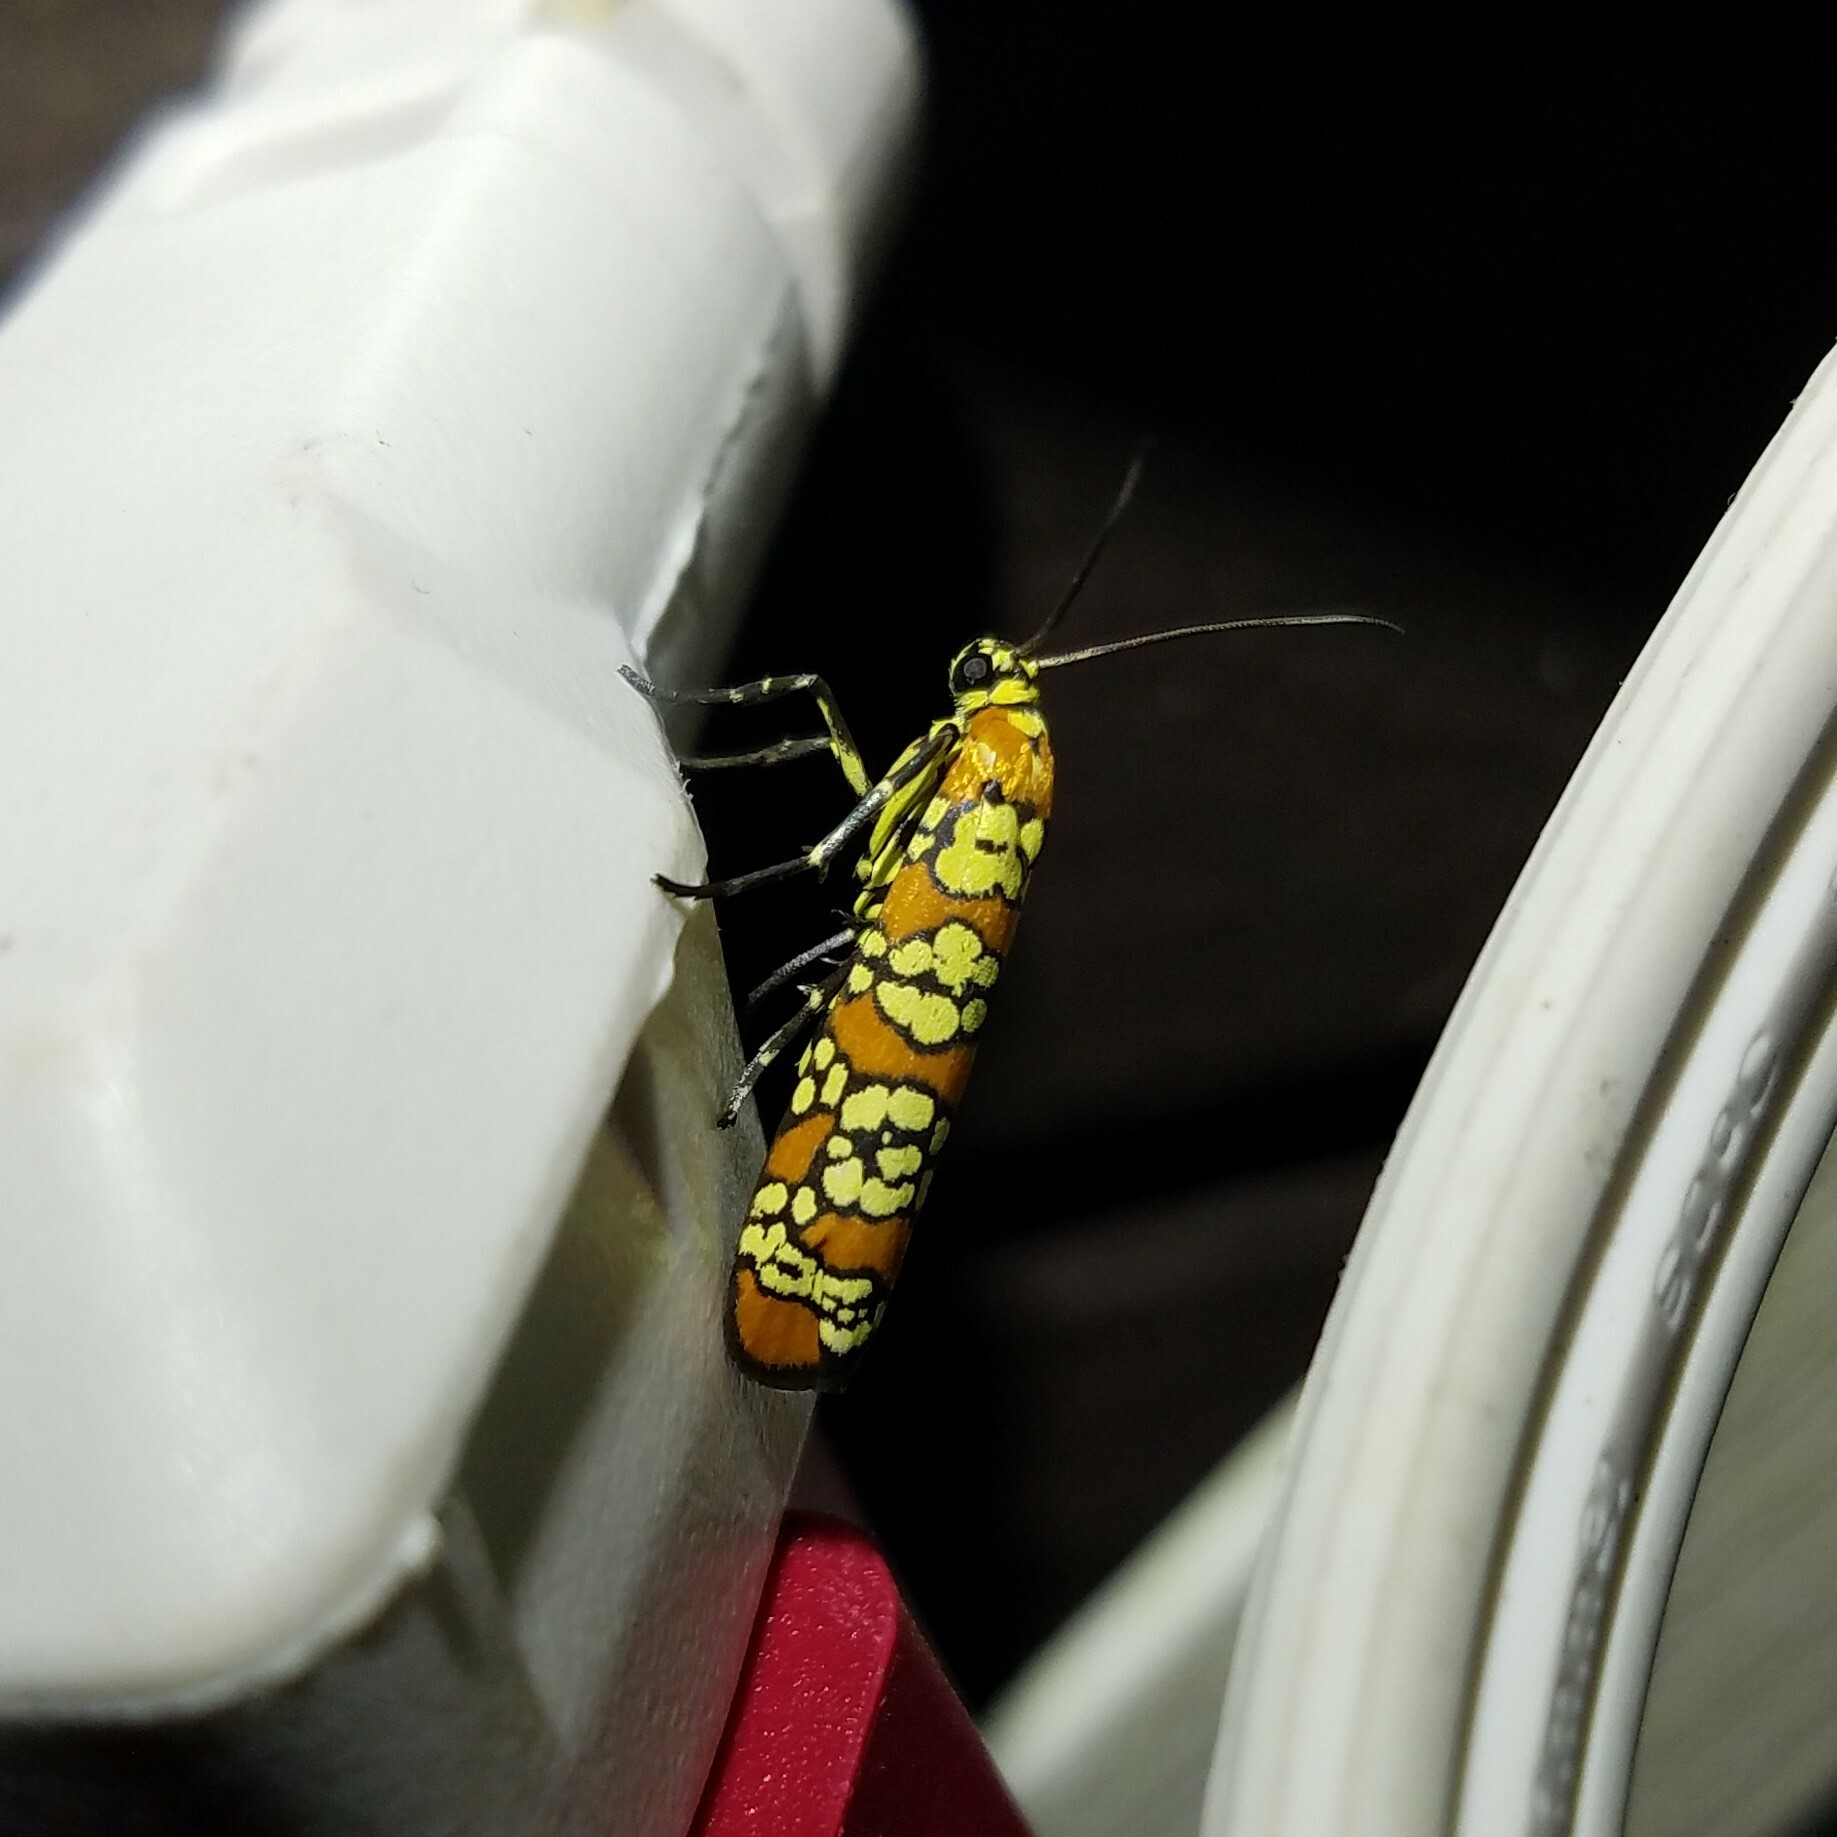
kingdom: Animalia
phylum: Arthropoda
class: Insecta
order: Lepidoptera
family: Attevidae
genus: Atteva
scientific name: Atteva punctella
